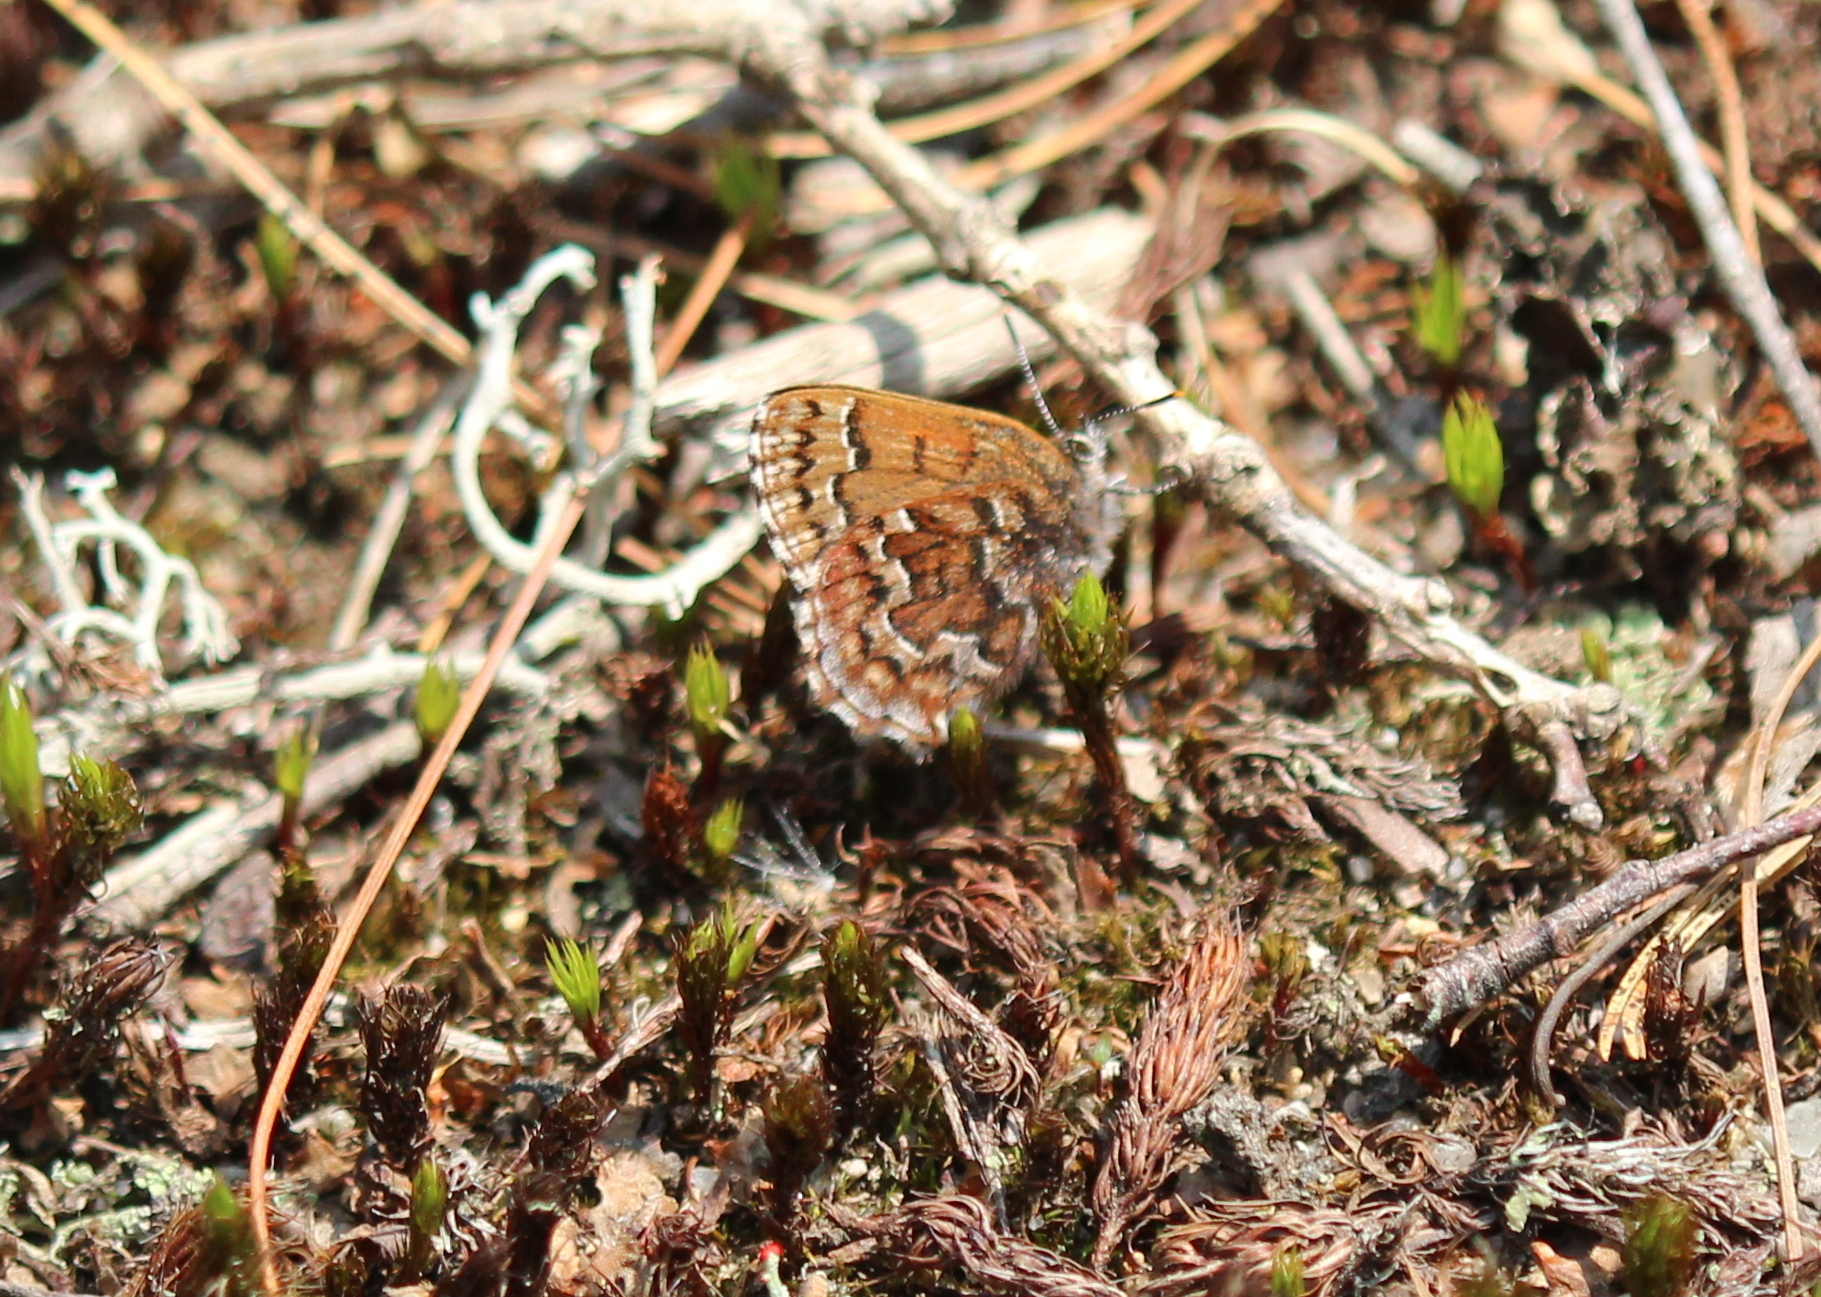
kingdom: Animalia
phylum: Arthropoda
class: Insecta
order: Lepidoptera
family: Lycaenidae
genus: Incisalia
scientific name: Incisalia niphon
